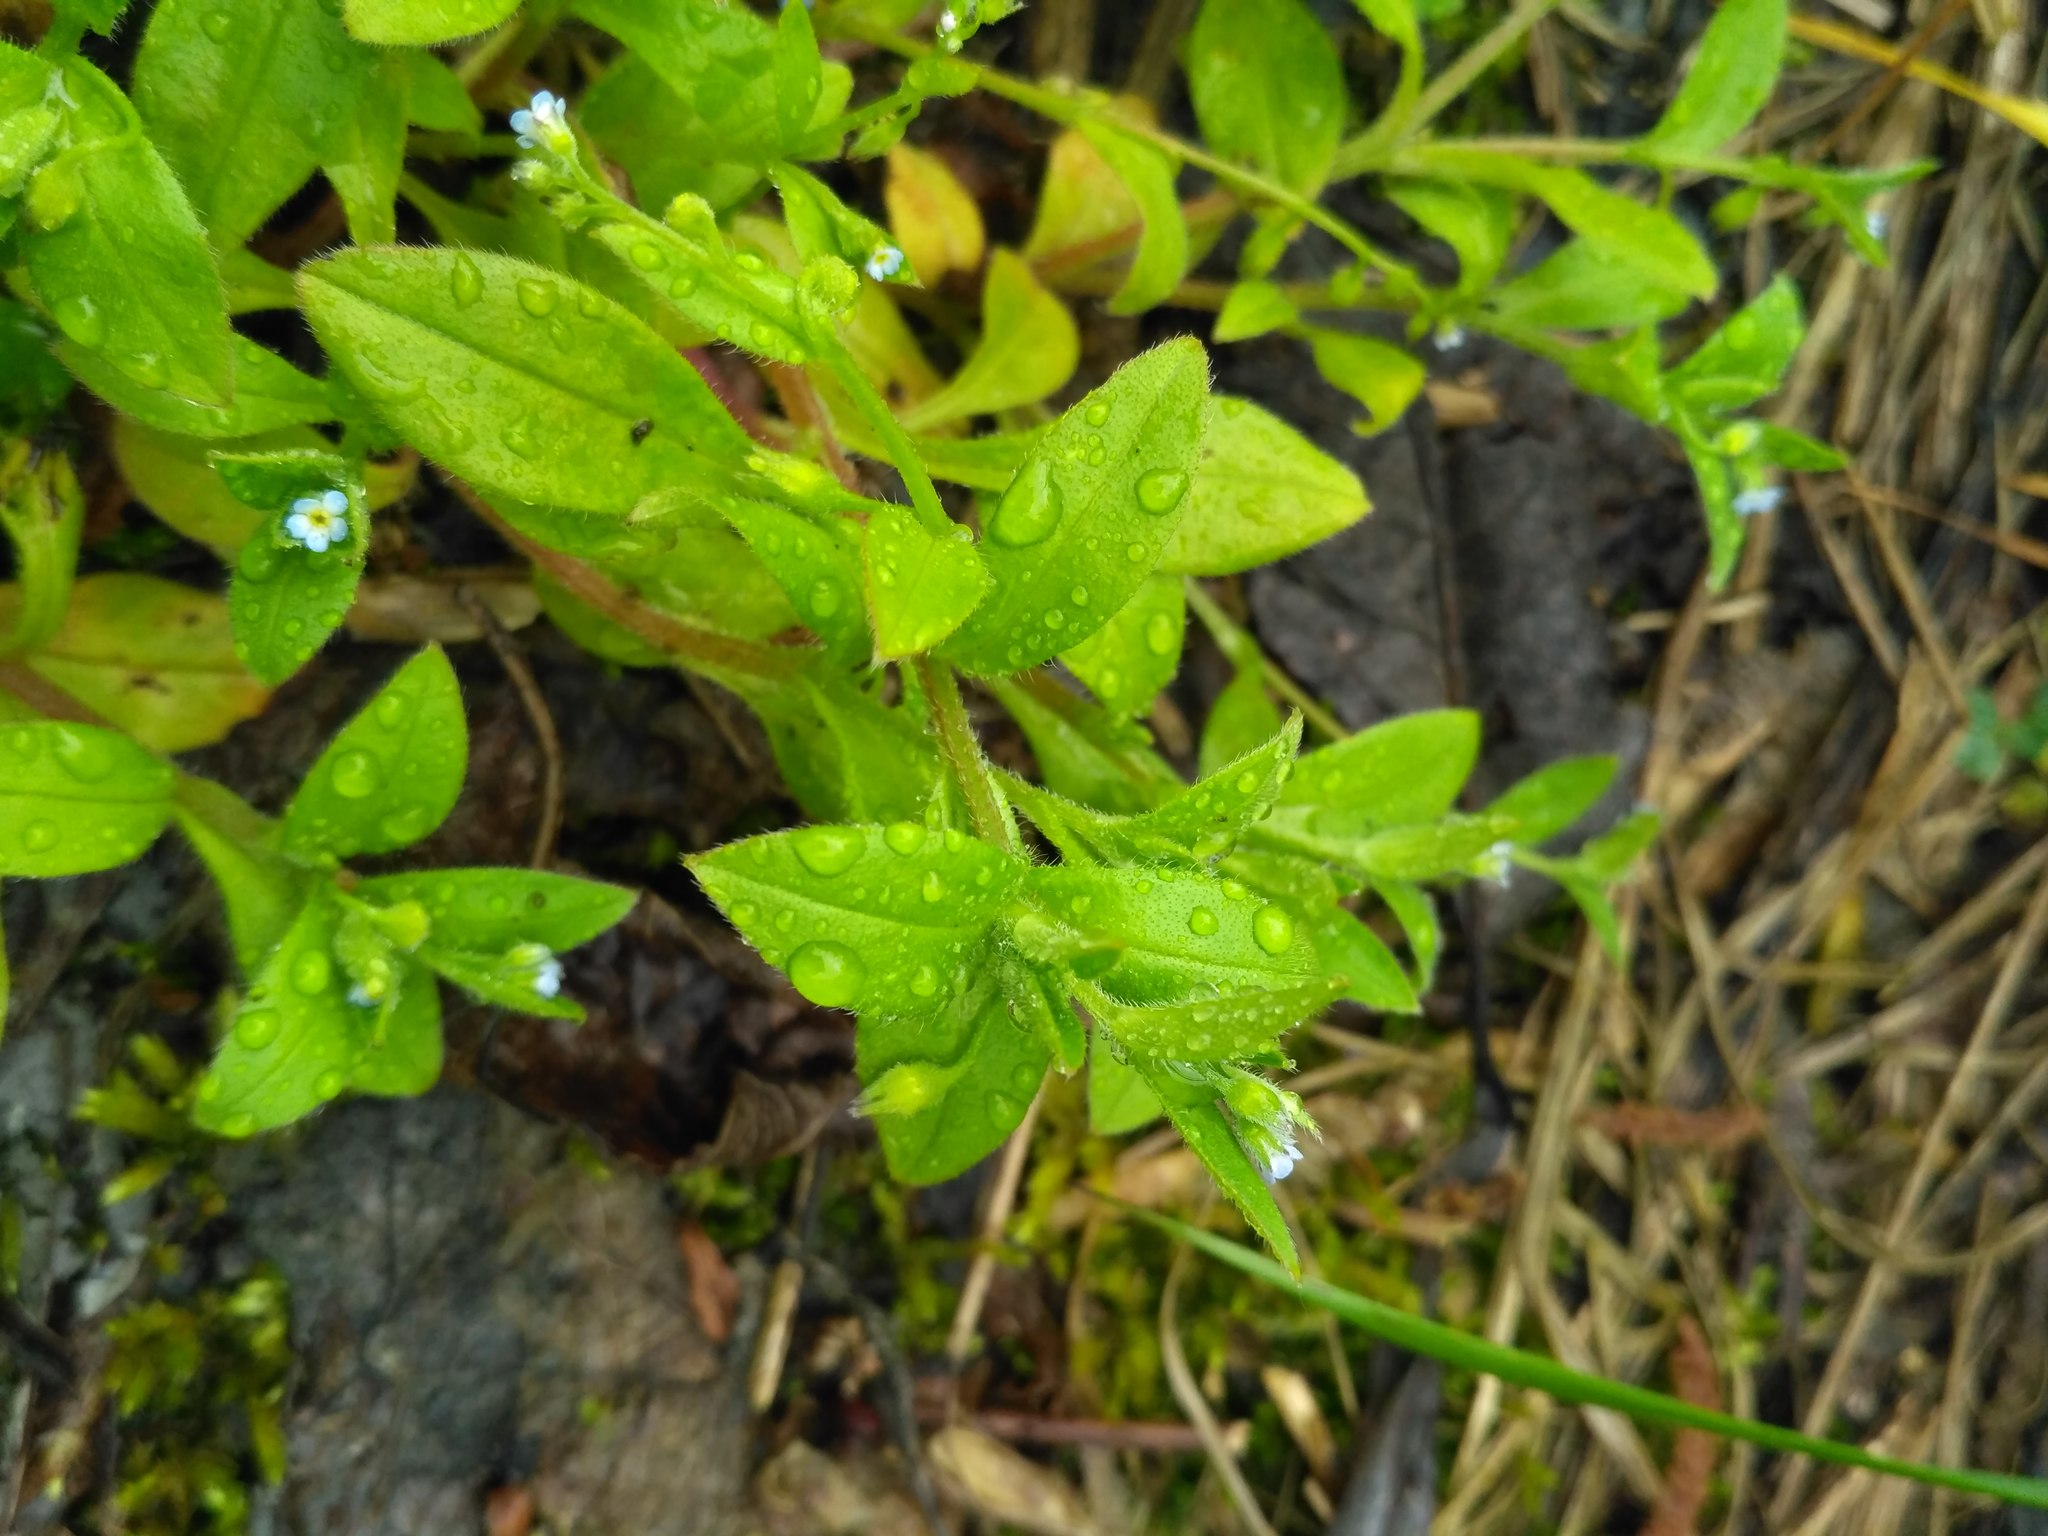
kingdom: Plantae
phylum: Tracheophyta
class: Magnoliopsida
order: Boraginales
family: Boraginaceae
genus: Myosotis
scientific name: Myosotis sparsiflora
